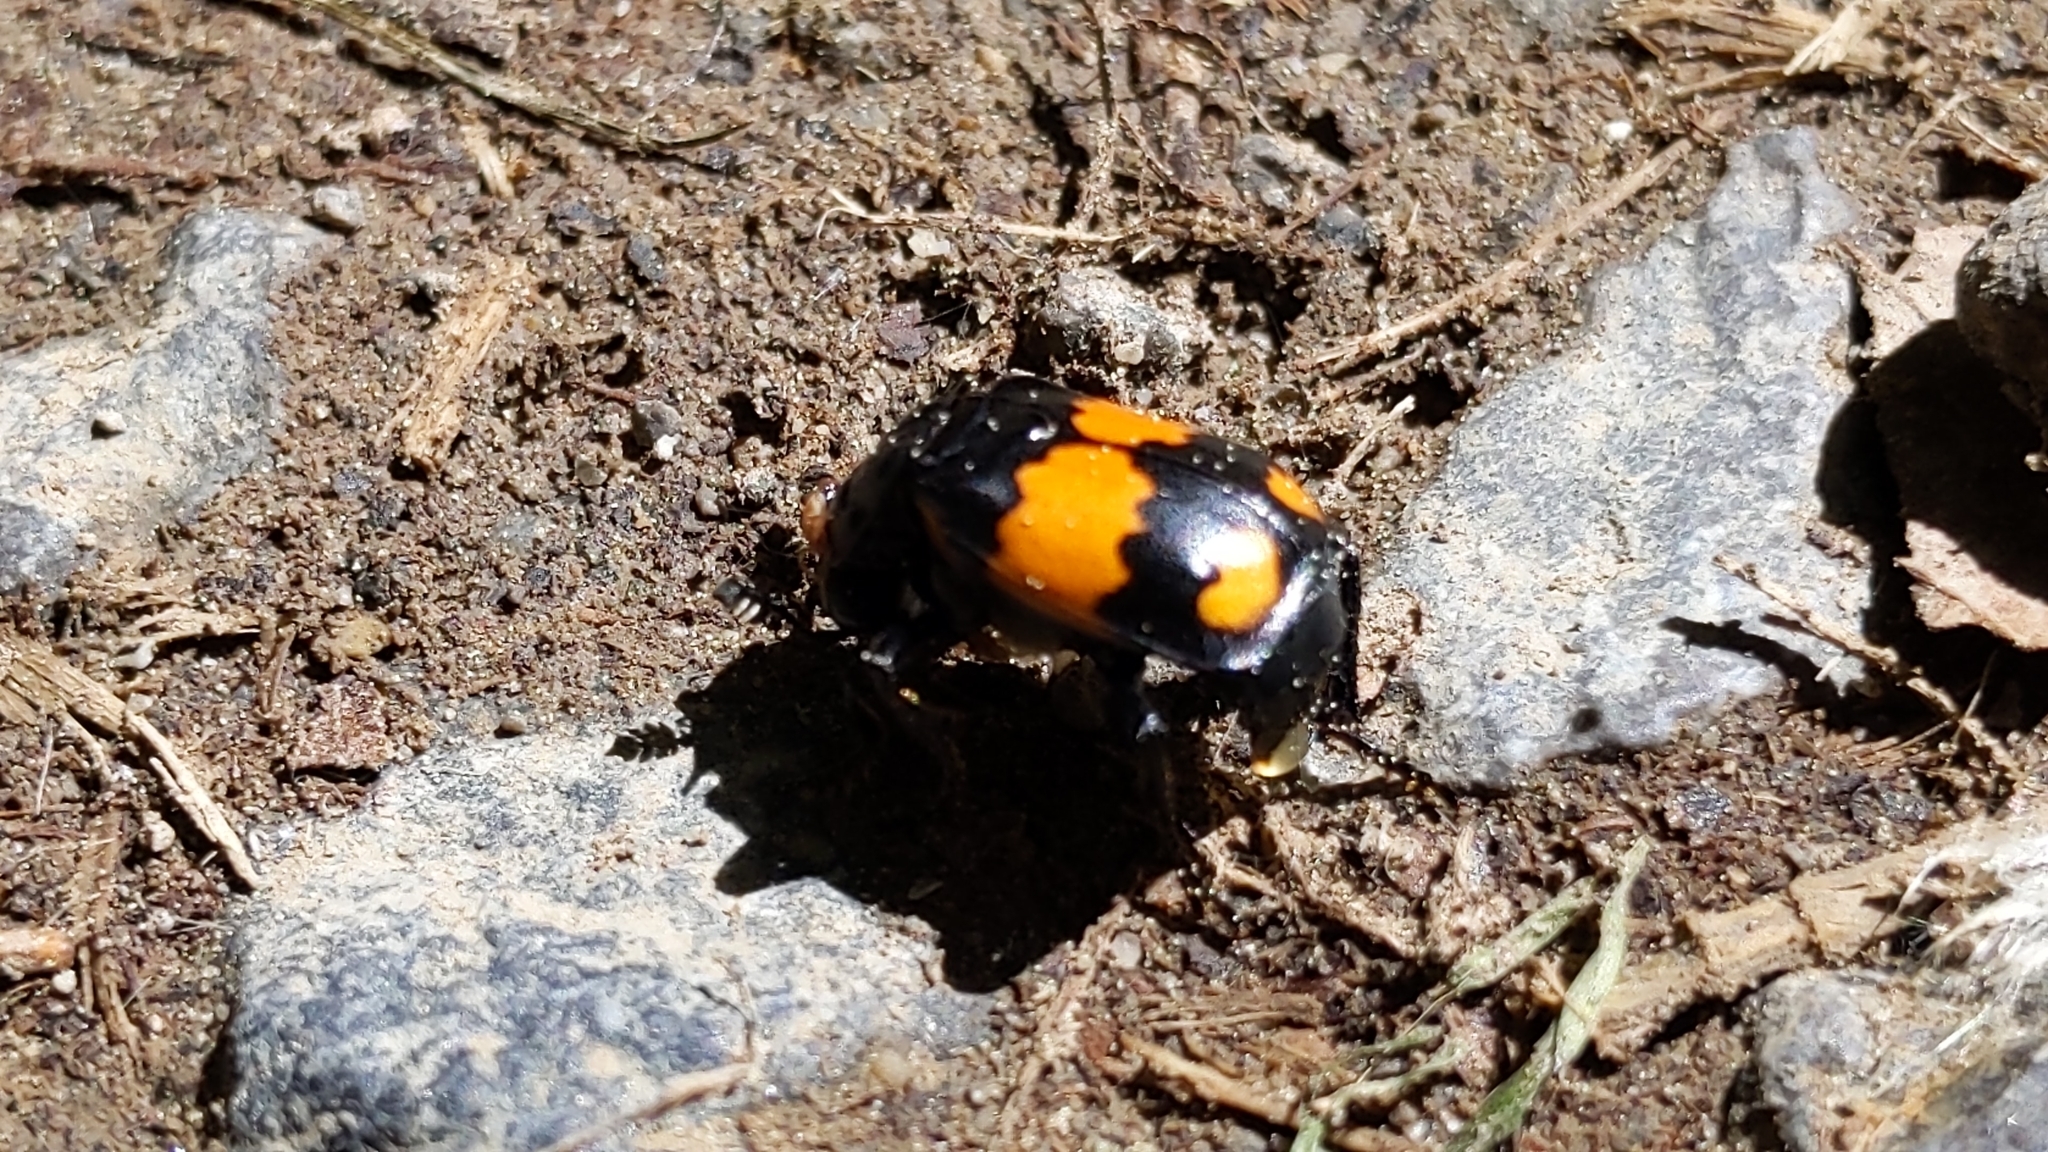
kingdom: Animalia
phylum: Arthropoda
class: Insecta
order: Coleoptera
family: Staphylinidae
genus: Nicrophorus
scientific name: Nicrophorus vespilloides
